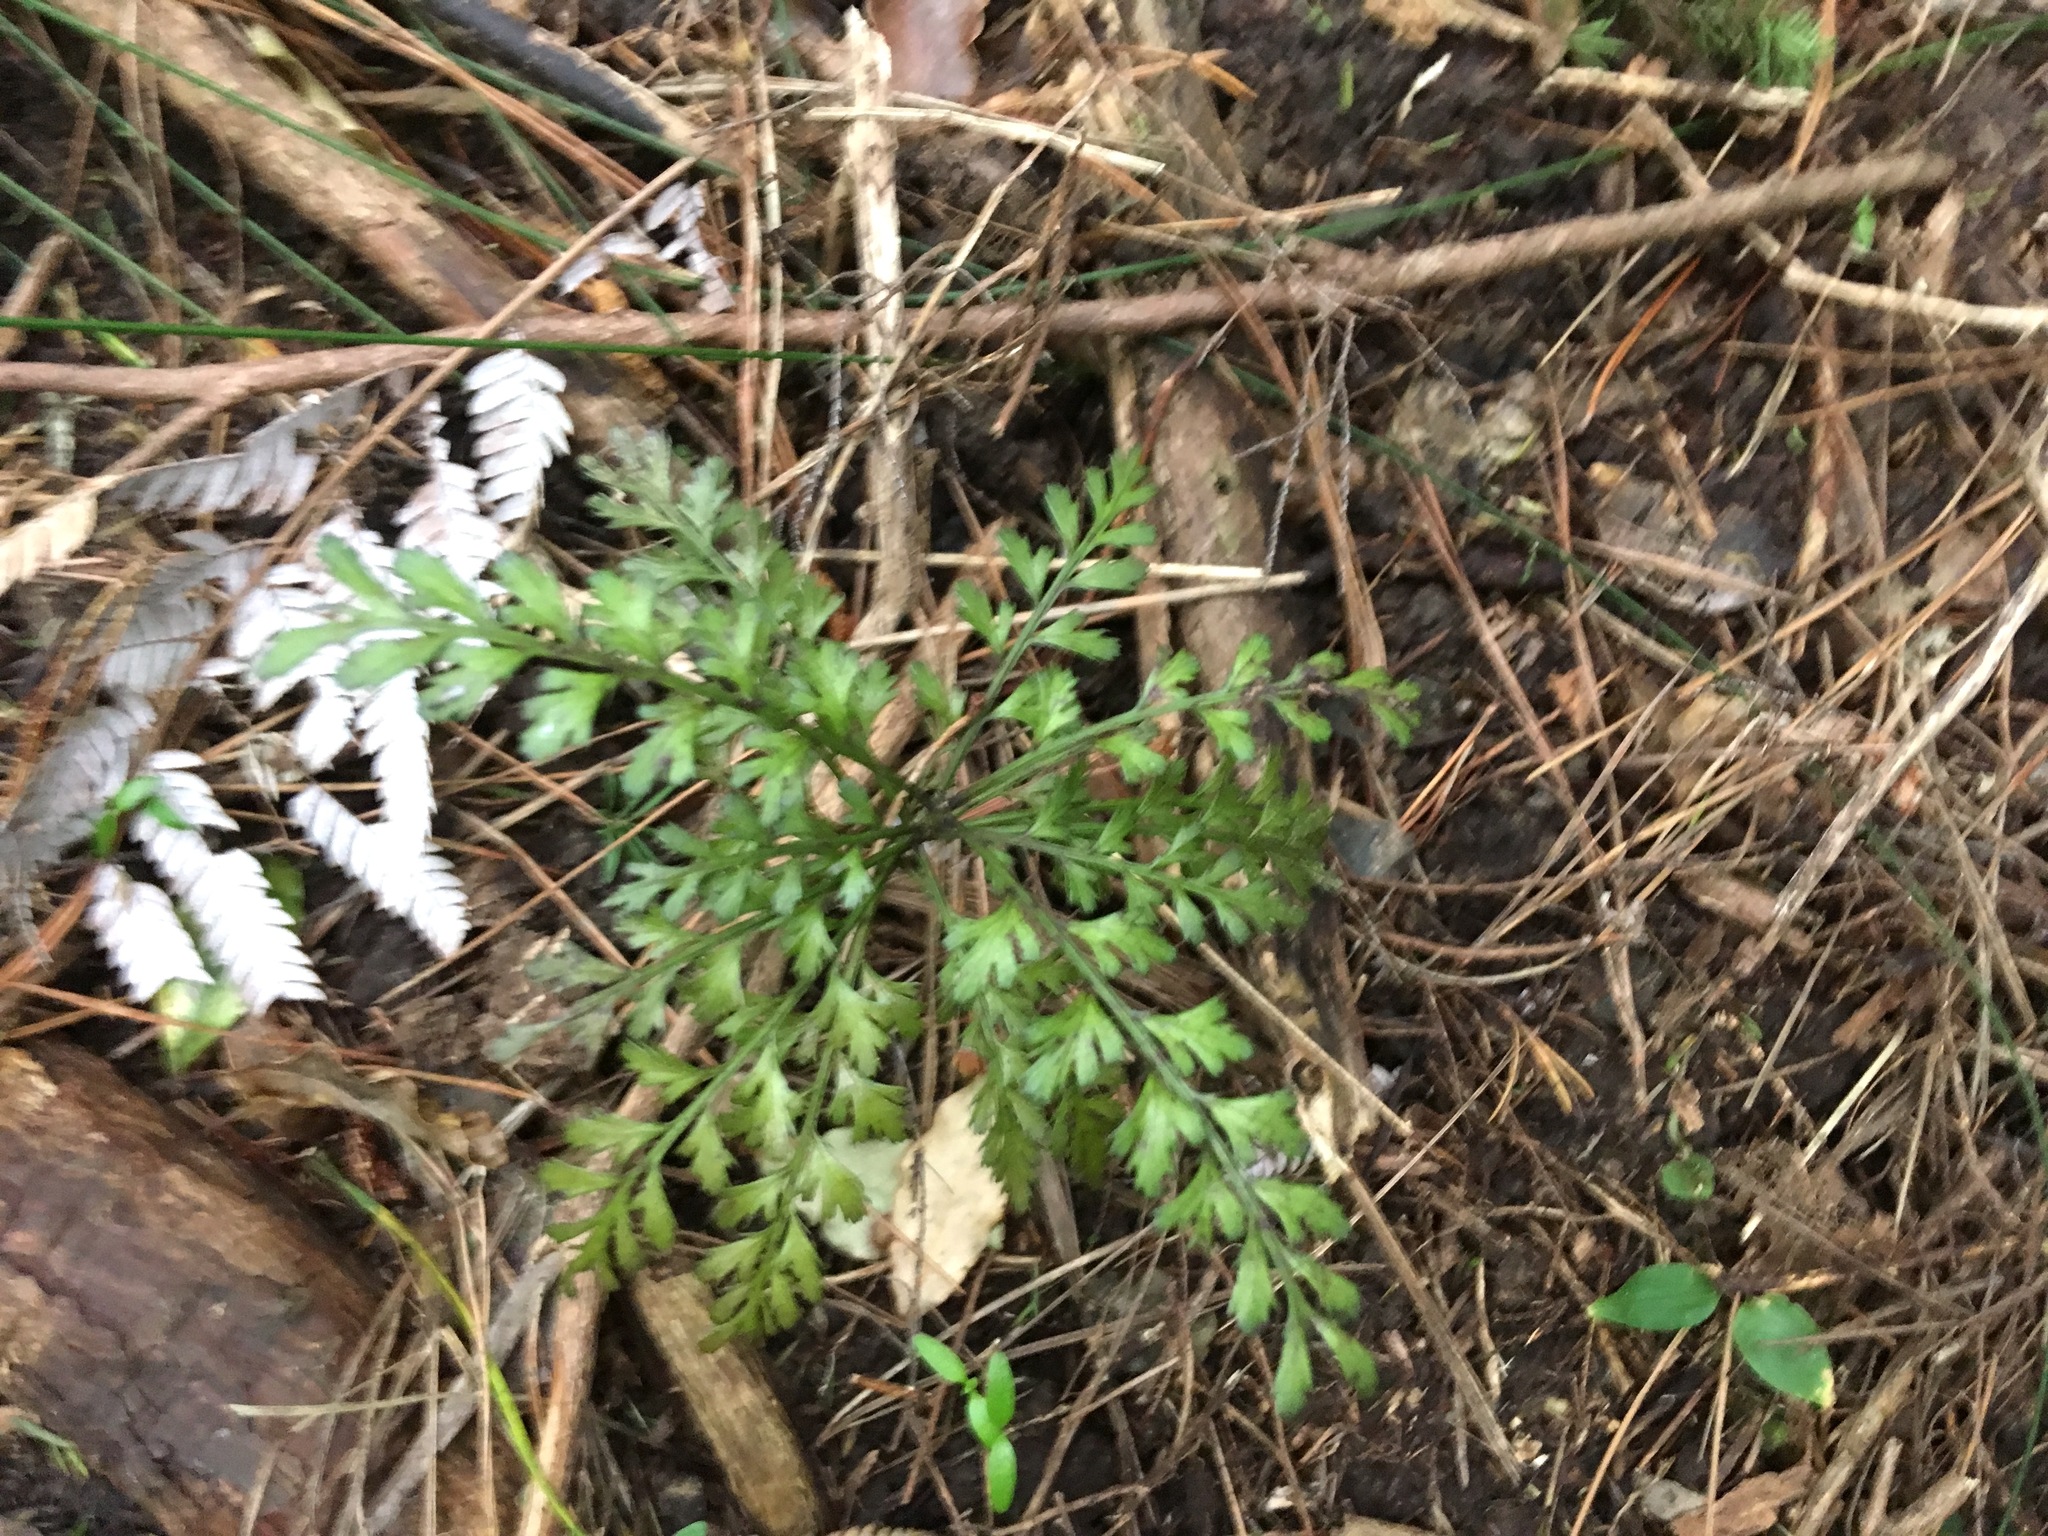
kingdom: Plantae
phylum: Tracheophyta
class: Pinopsida
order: Pinales
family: Phyllocladaceae
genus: Phyllocladus
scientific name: Phyllocladus trichomanoides
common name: Celery pine
